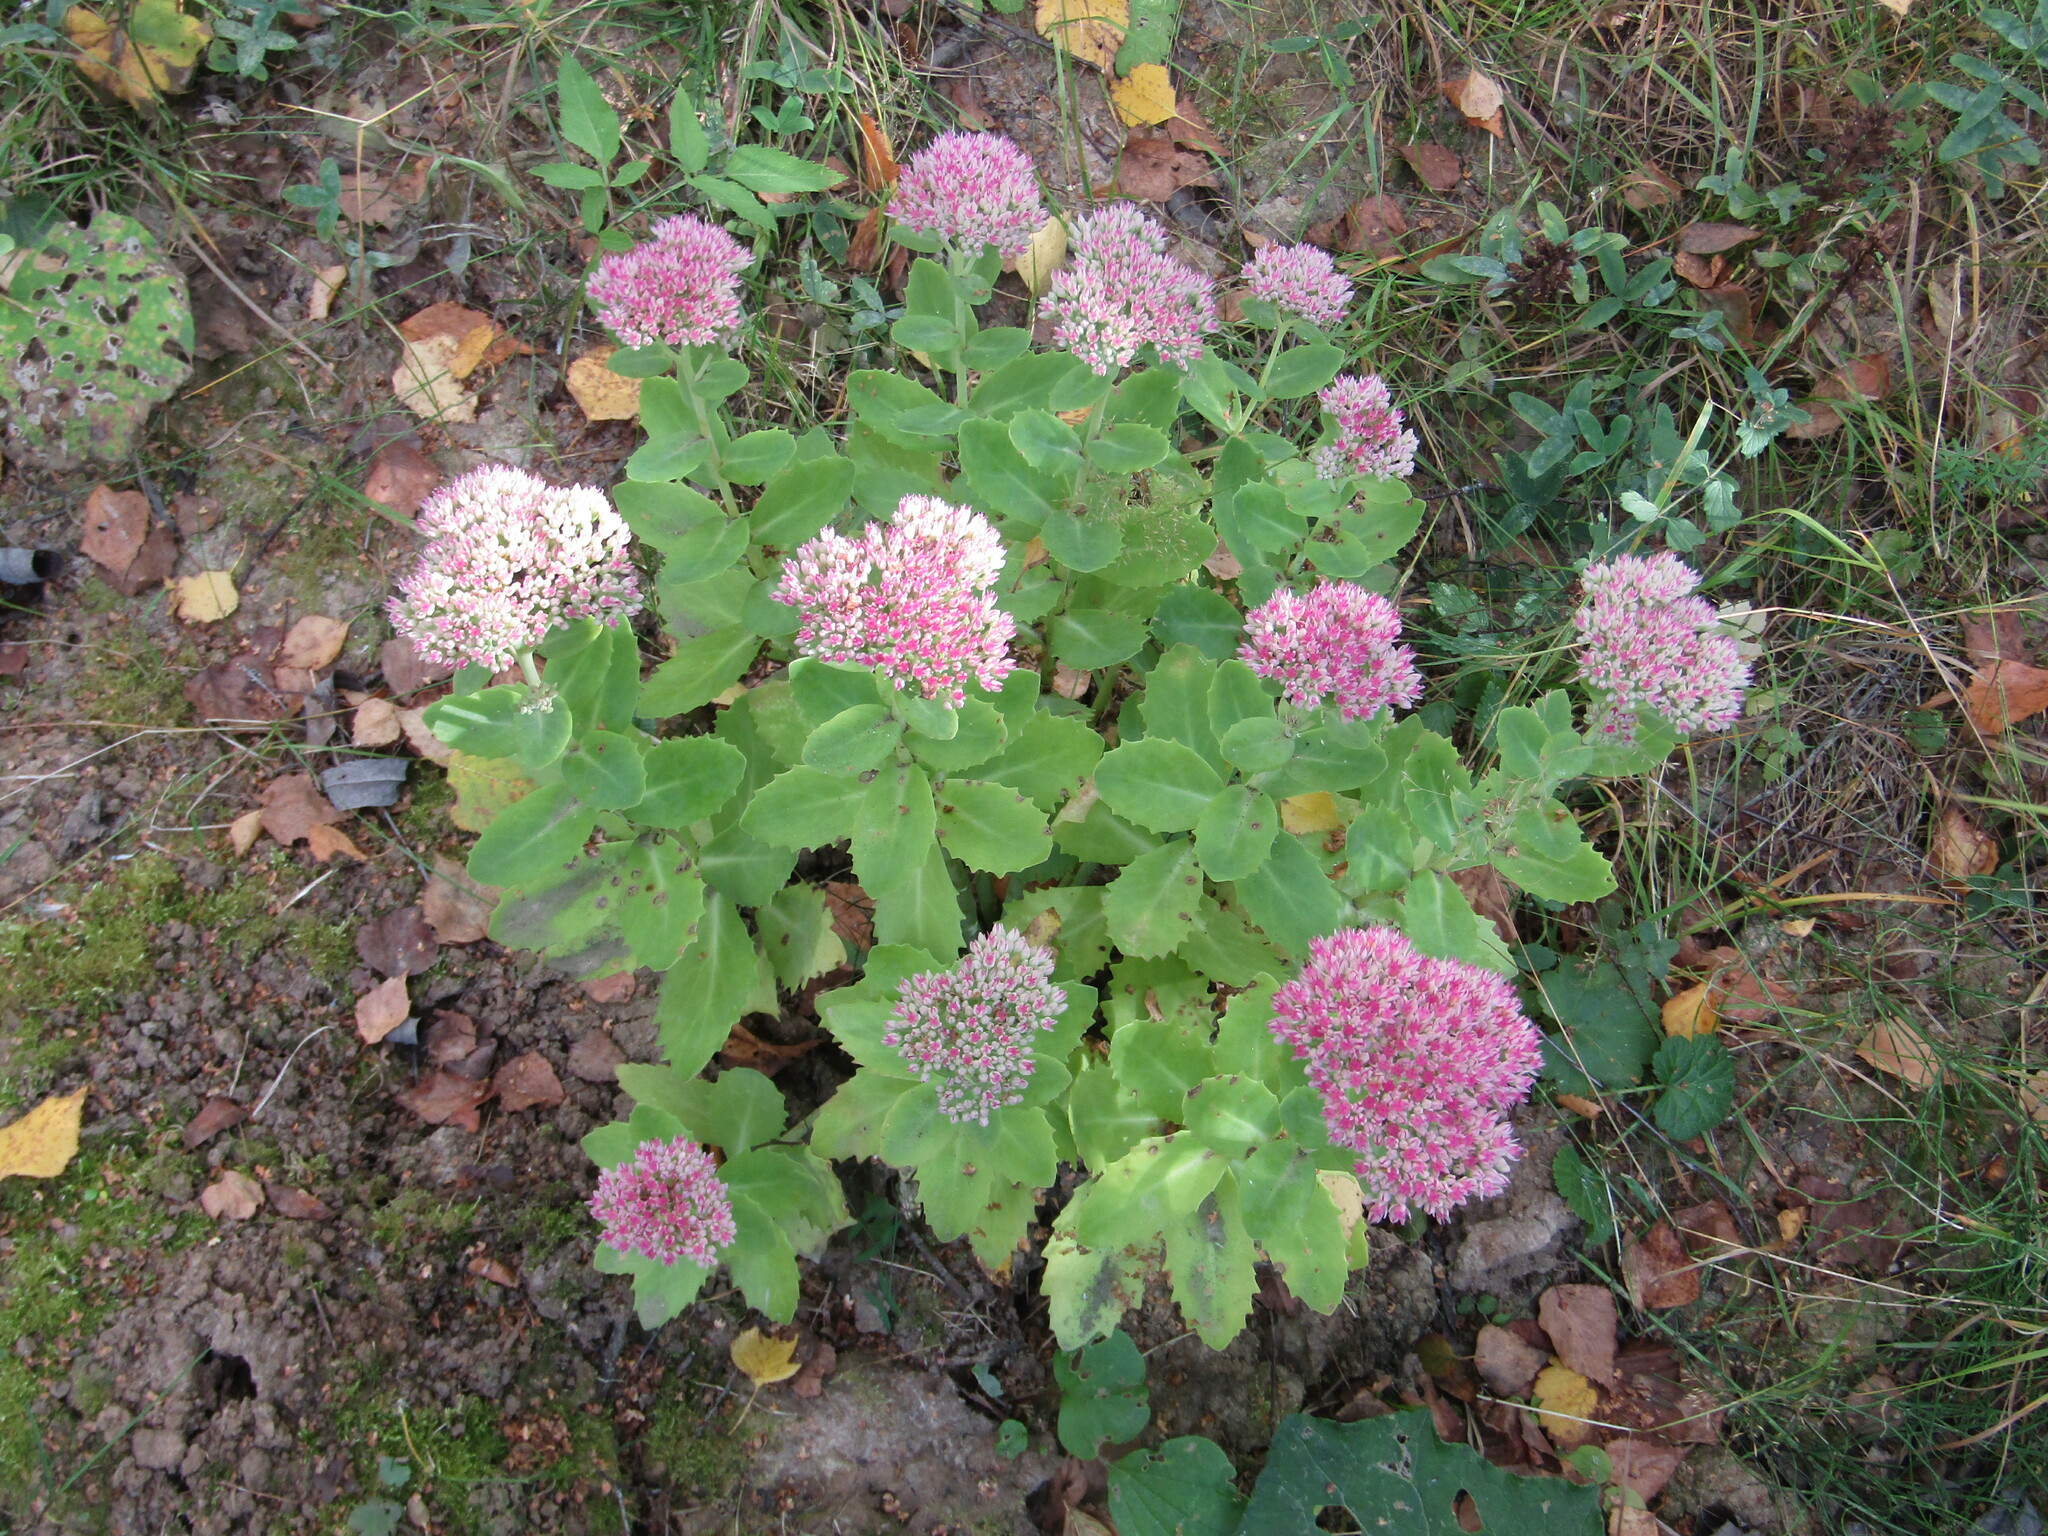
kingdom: Plantae
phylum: Tracheophyta
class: Magnoliopsida
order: Saxifragales
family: Crassulaceae
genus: Hylotelephium
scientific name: Hylotelephium
